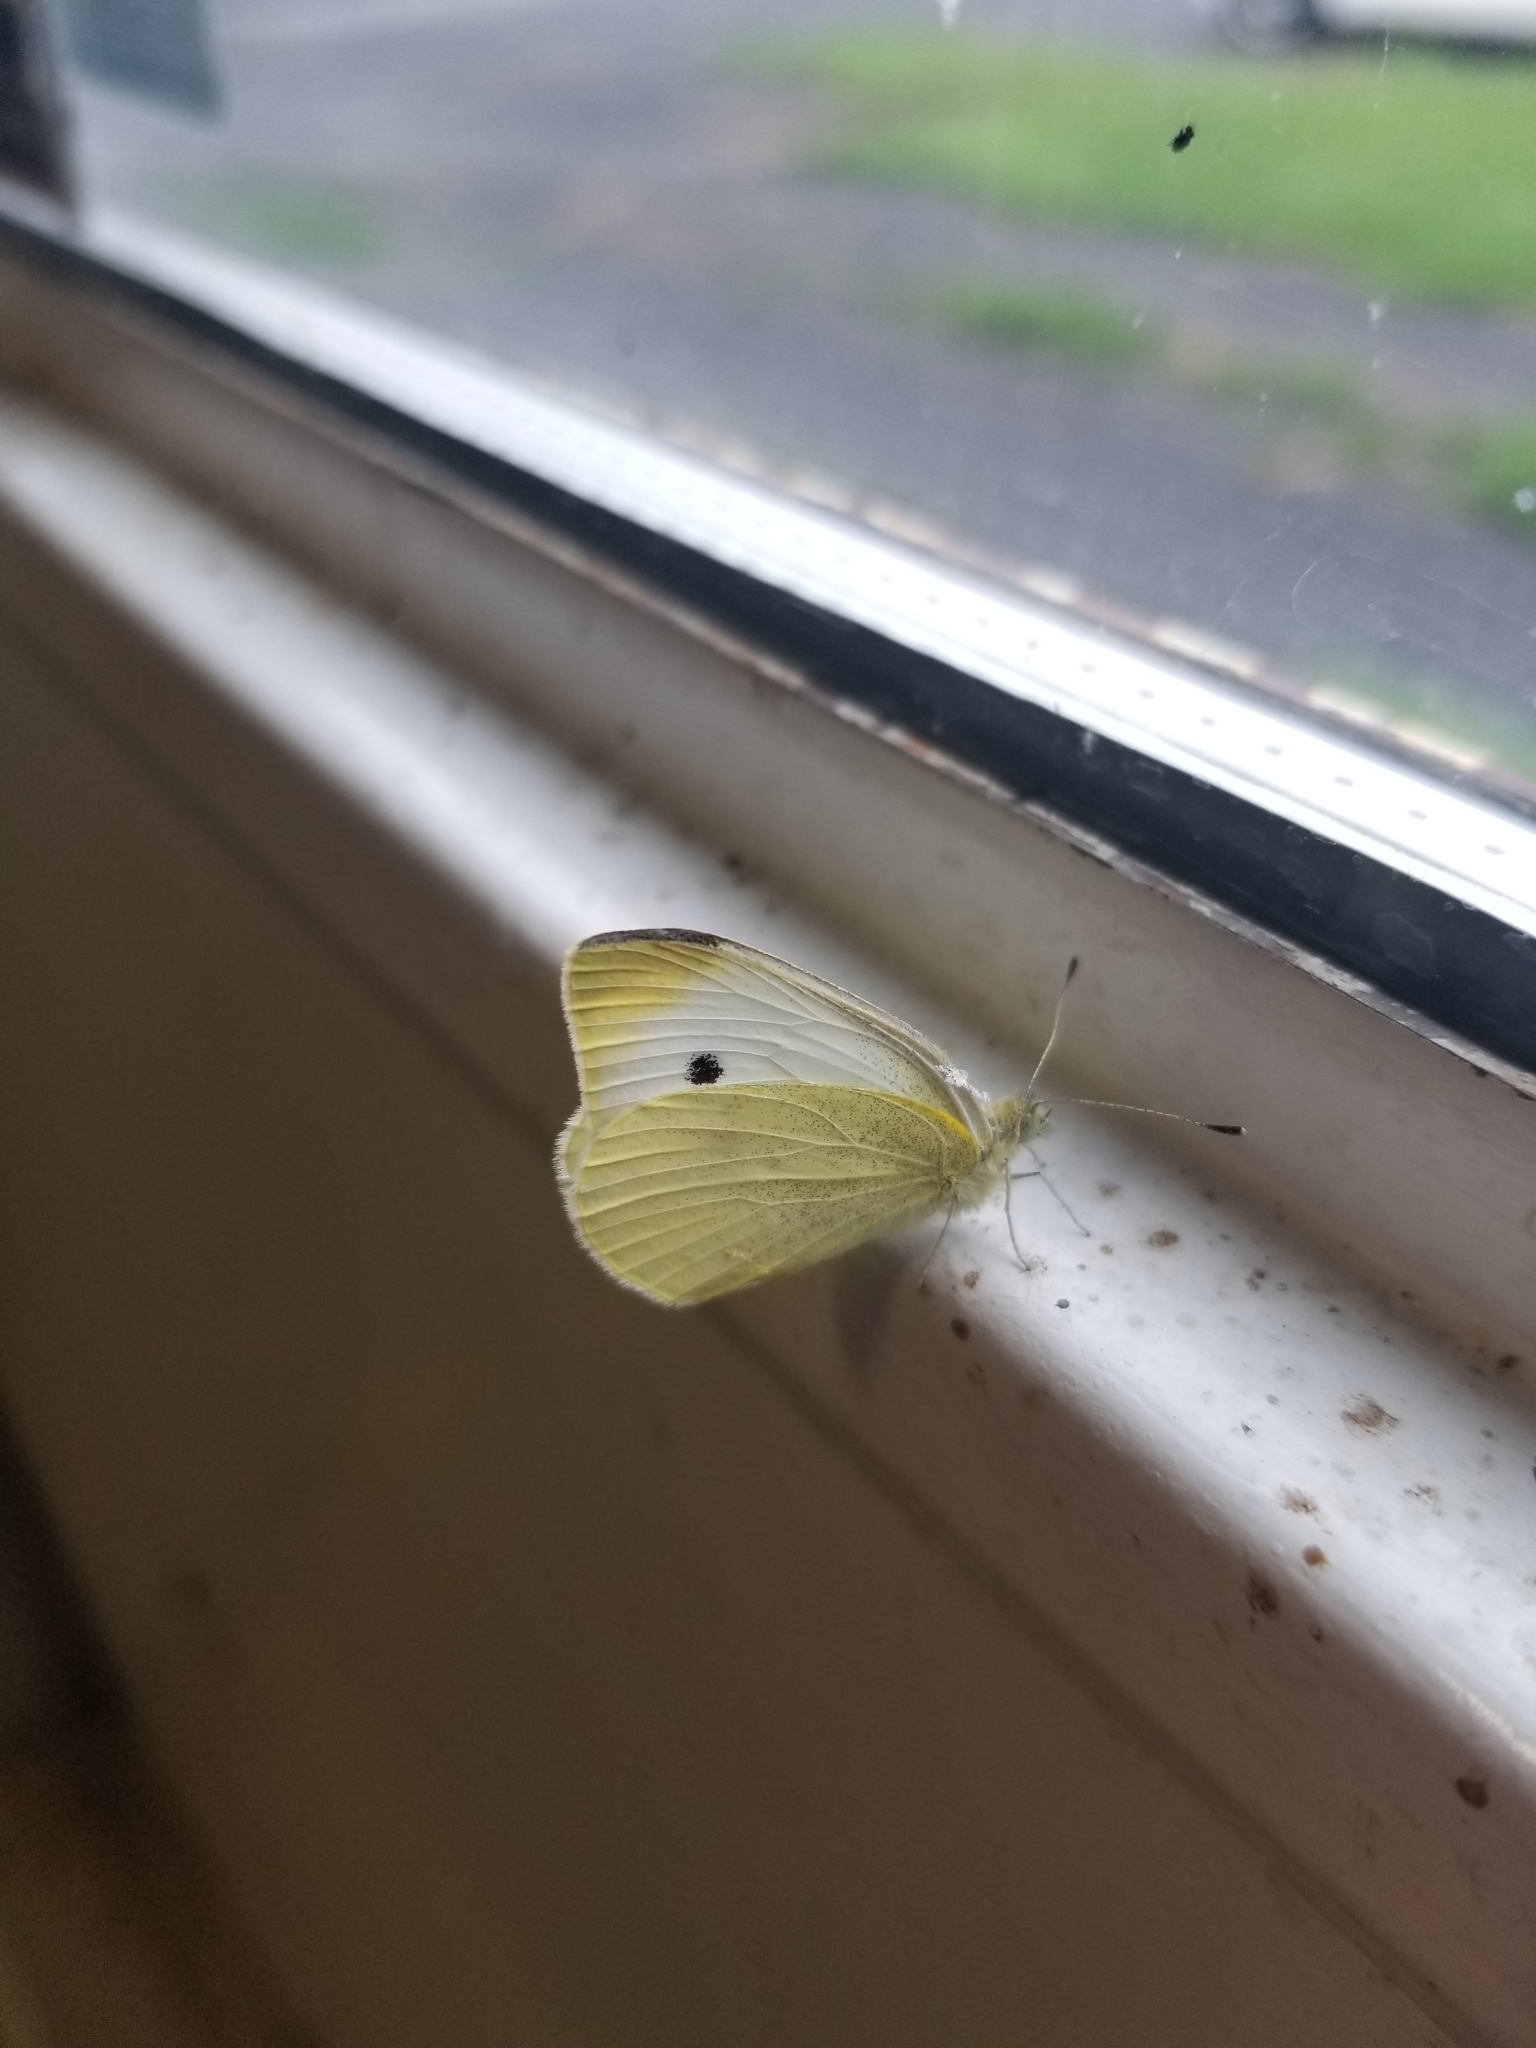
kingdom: Animalia
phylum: Arthropoda
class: Insecta
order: Lepidoptera
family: Pieridae
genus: Pieris
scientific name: Pieris rapae
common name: Small white
